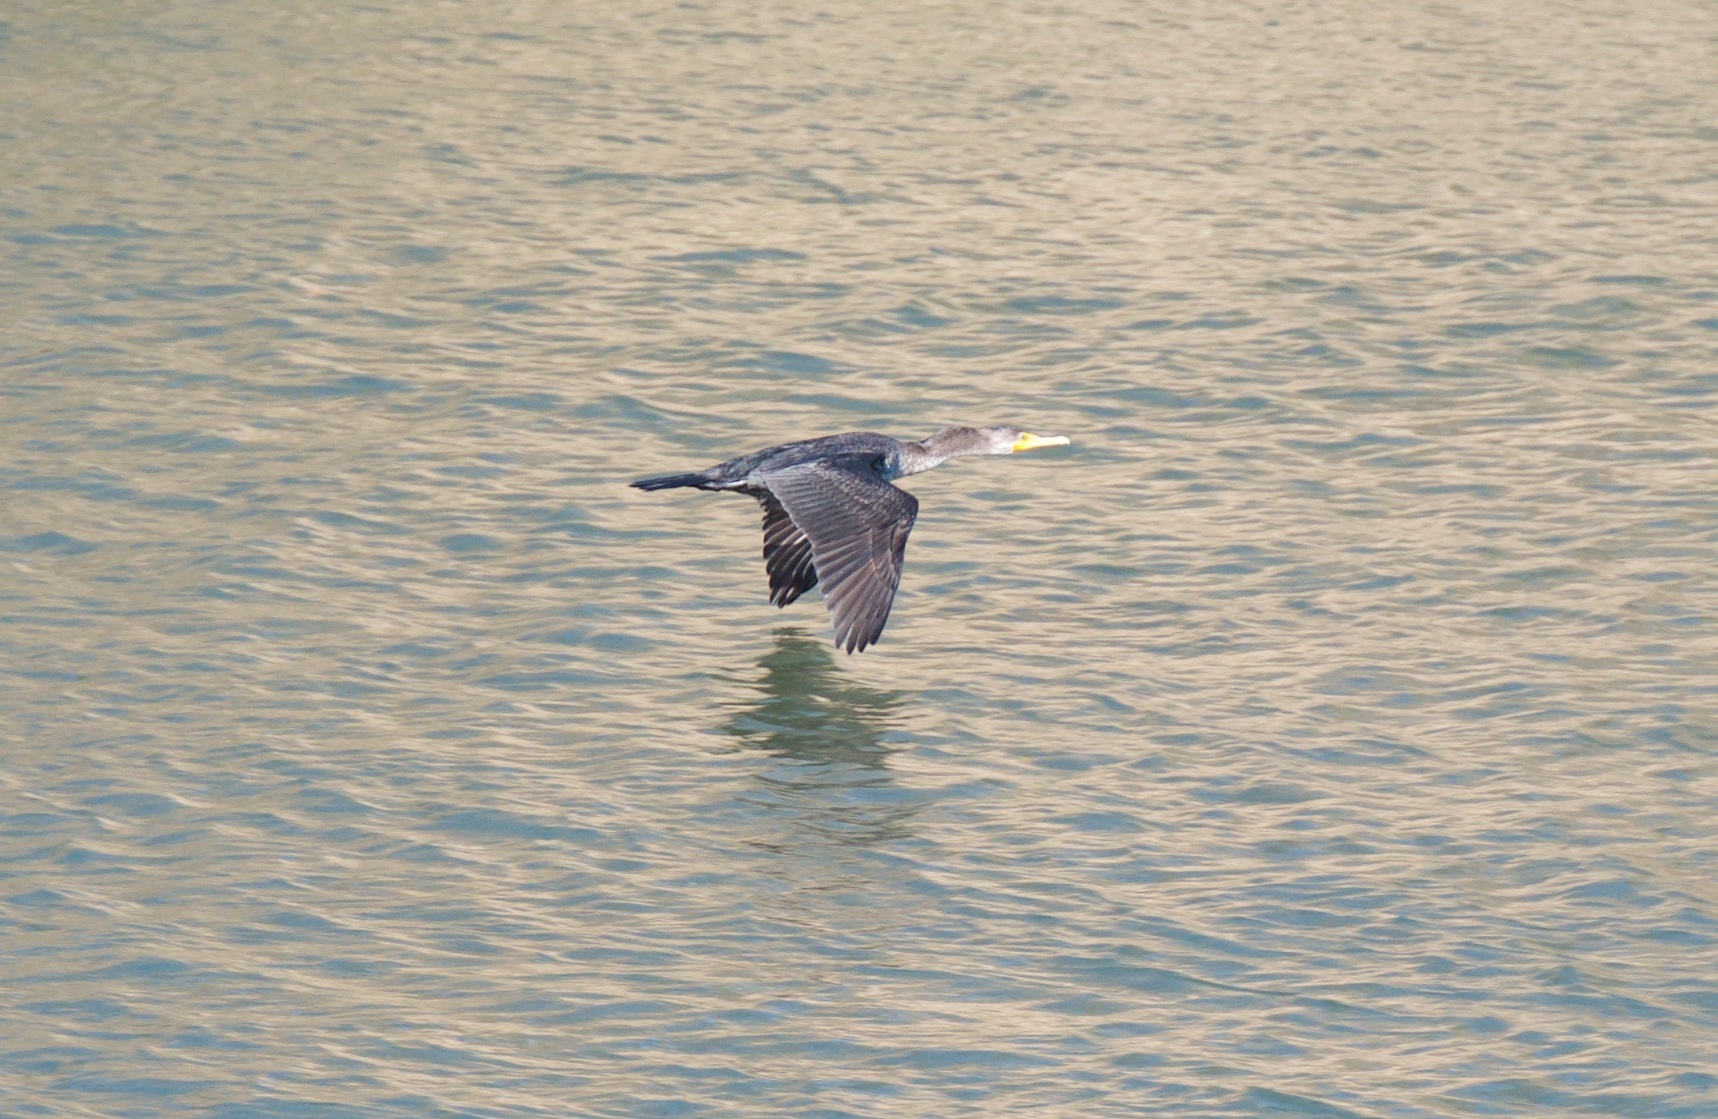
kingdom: Animalia
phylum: Chordata
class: Aves
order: Suliformes
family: Phalacrocoracidae
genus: Phalacrocorax
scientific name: Phalacrocorax auritus
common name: Double-crested cormorant
